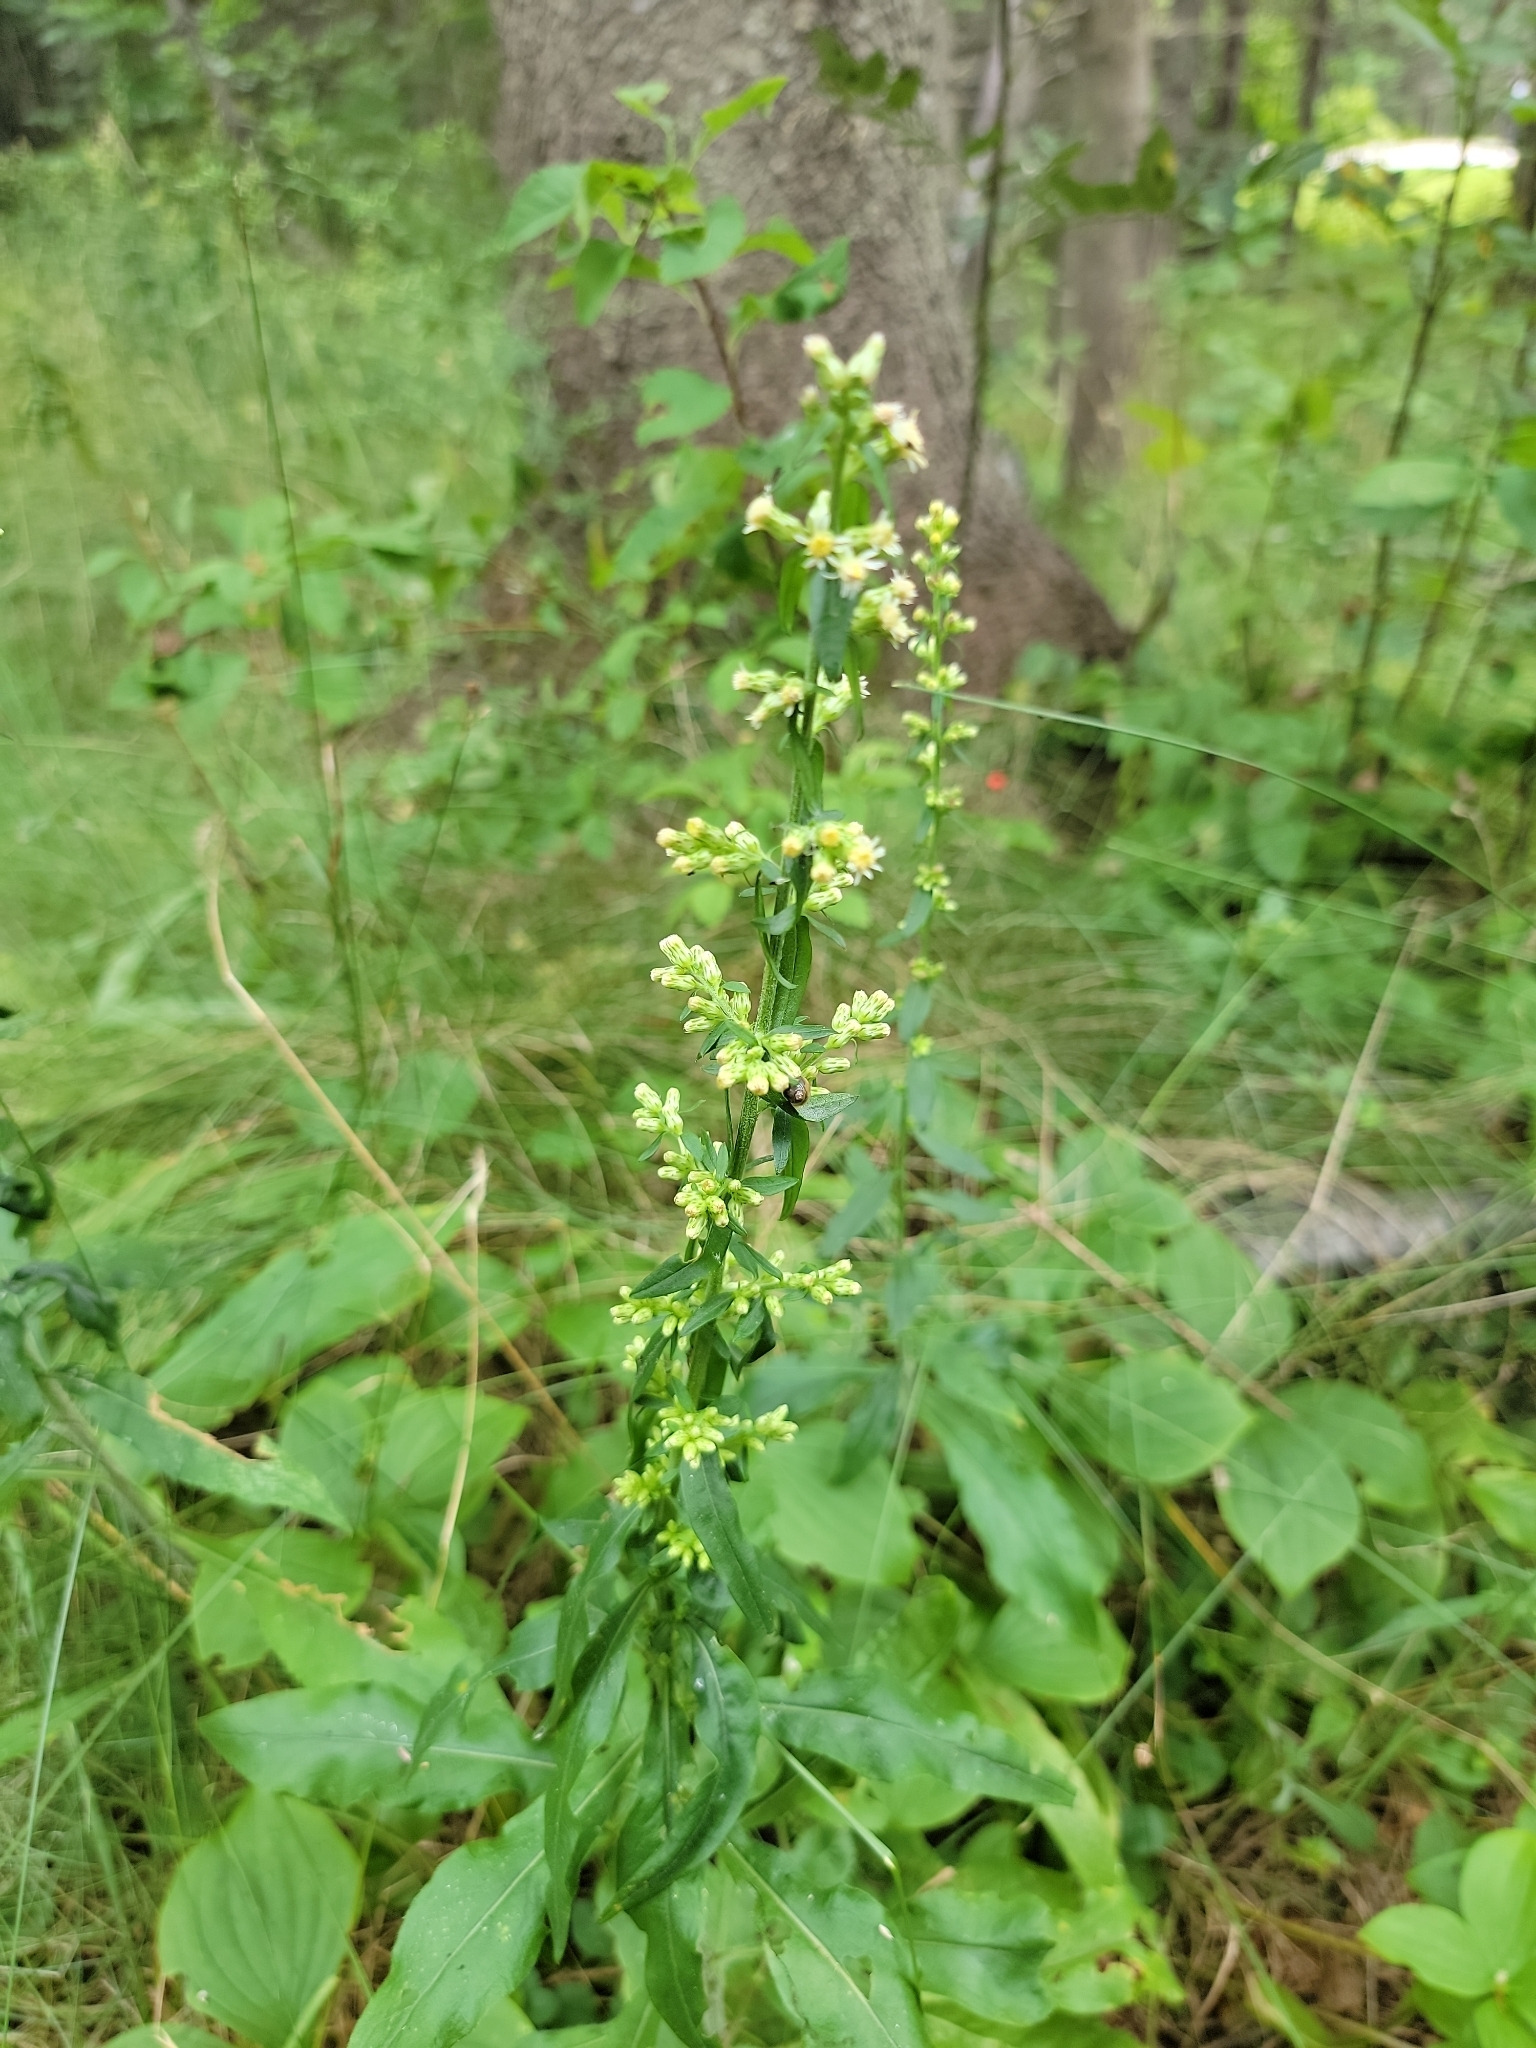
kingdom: Plantae
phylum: Tracheophyta
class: Magnoliopsida
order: Asterales
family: Asteraceae
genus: Solidago
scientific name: Solidago bicolor
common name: Silverrod
